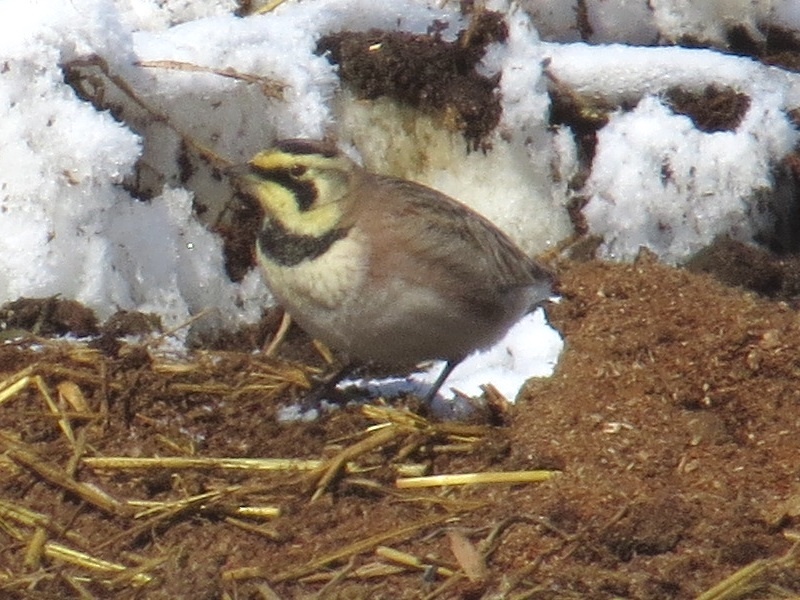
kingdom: Animalia
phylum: Chordata
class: Aves
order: Passeriformes
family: Alaudidae
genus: Eremophila
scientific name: Eremophila alpestris
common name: Horned lark
